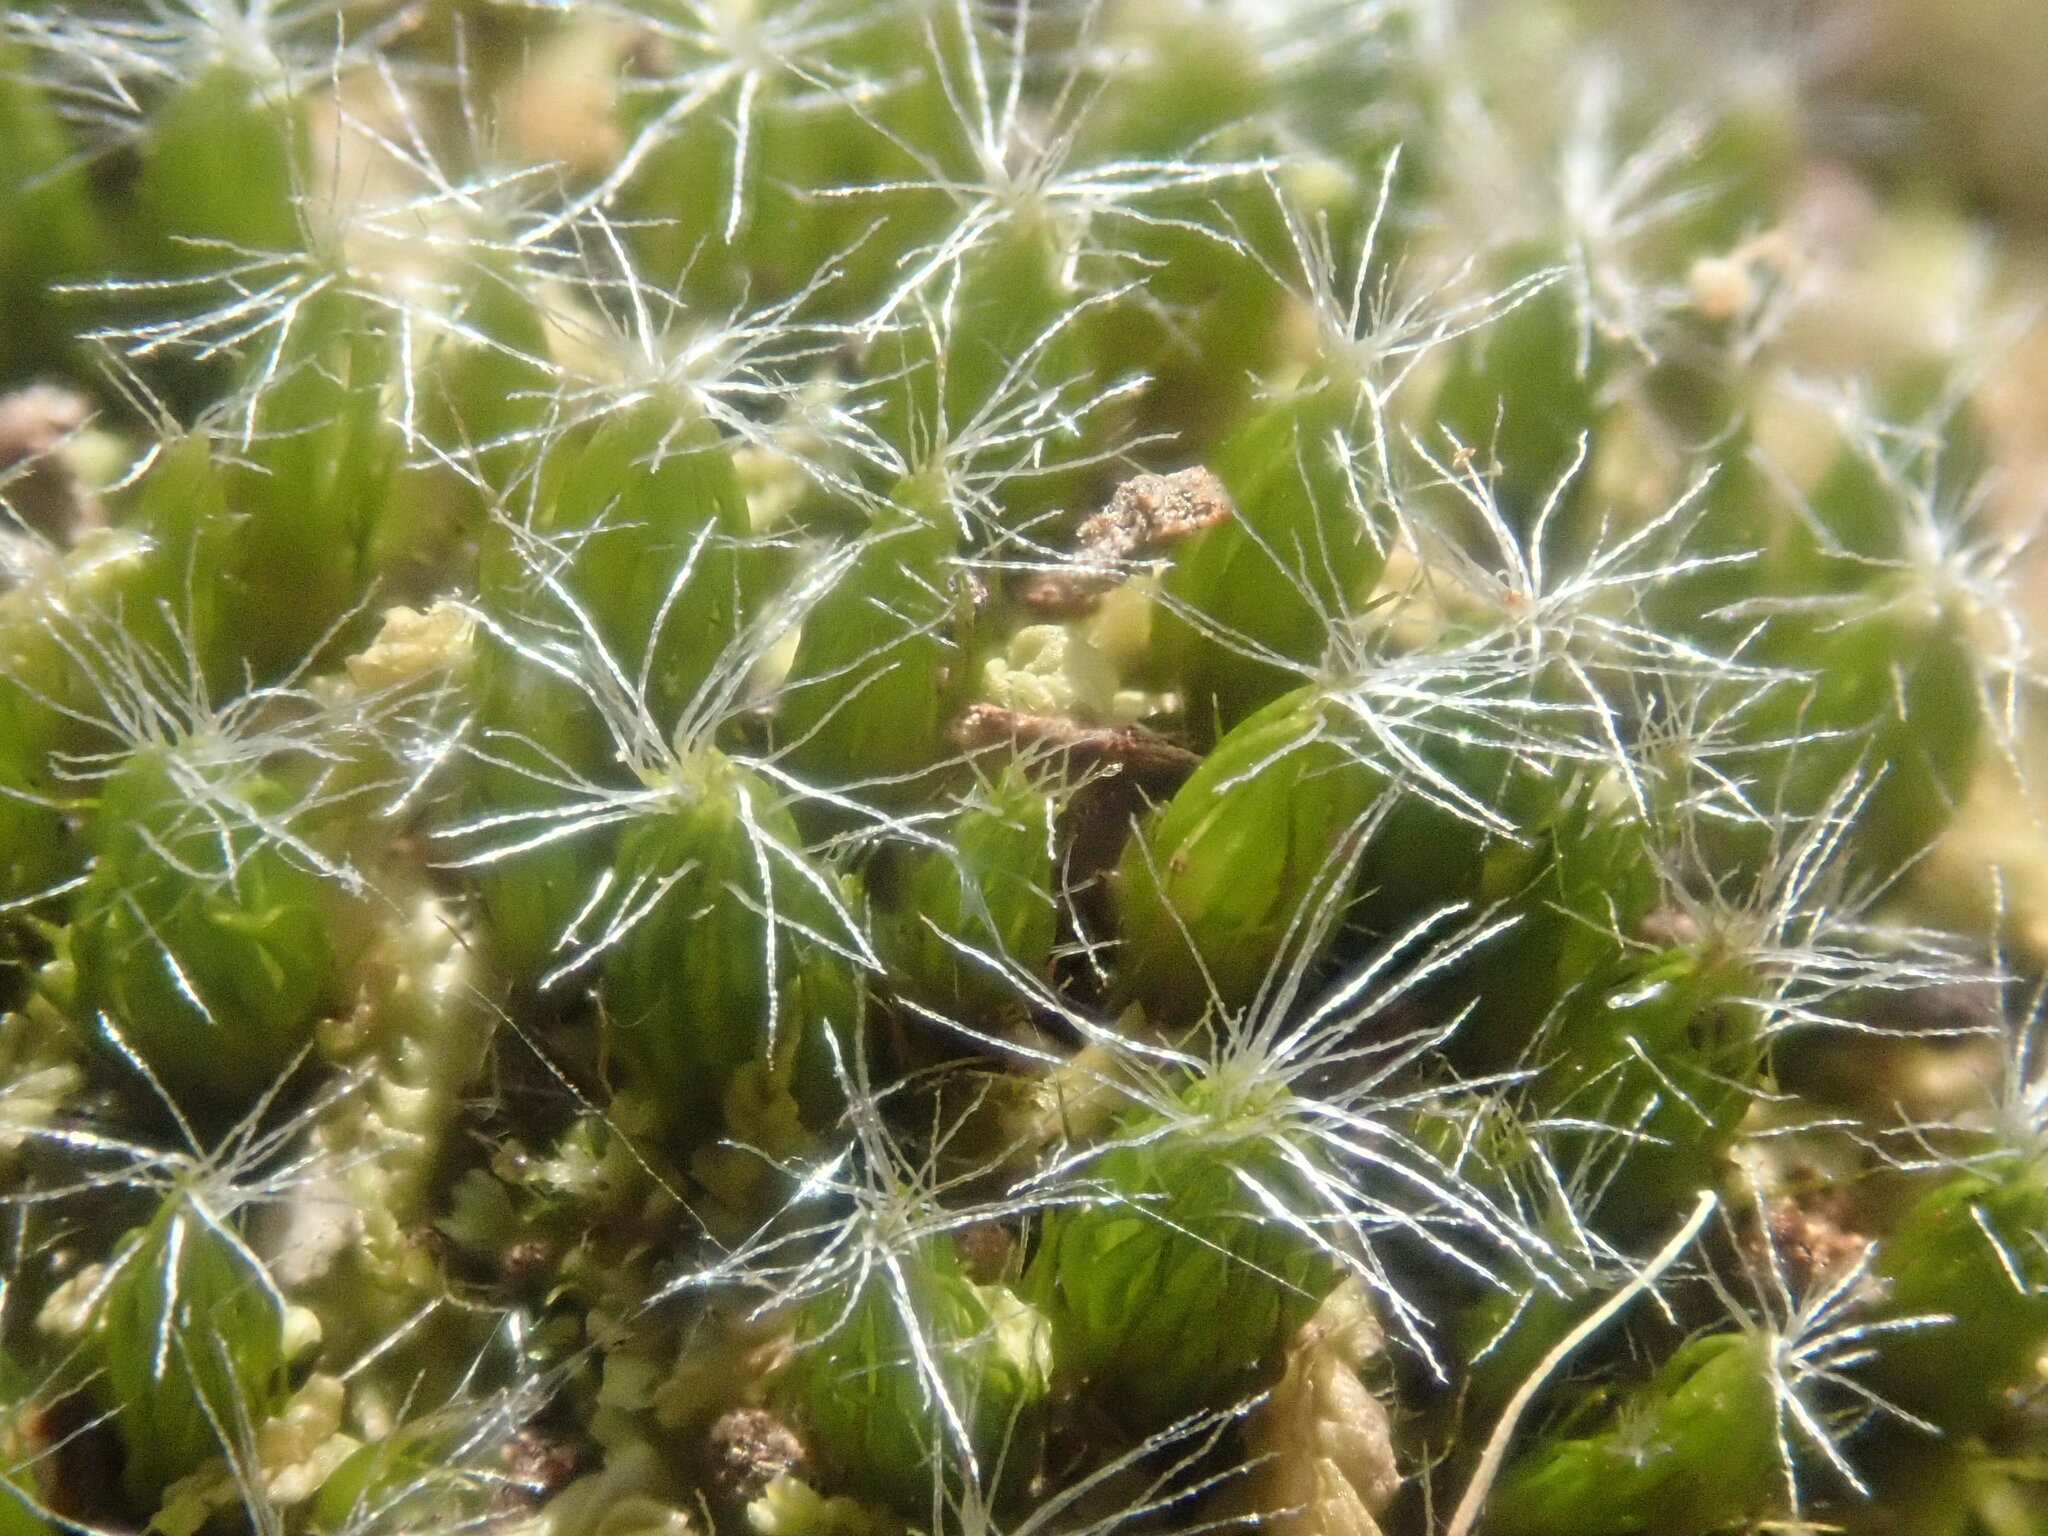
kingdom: Plantae
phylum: Bryophyta
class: Bryopsida
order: Dicranales
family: Leucobryaceae
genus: Campylopus
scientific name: Campylopus introflexus
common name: Heath star moss
